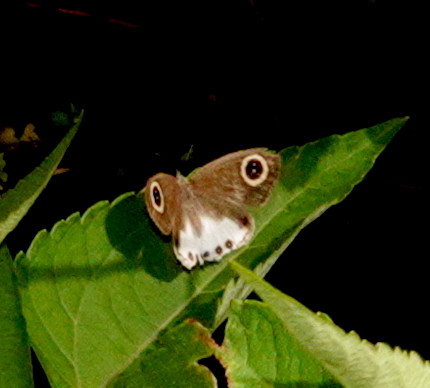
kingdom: Animalia
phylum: Arthropoda
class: Insecta
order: Lepidoptera
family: Nymphalidae
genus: Ypthima
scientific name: Ypthima ceylonica
